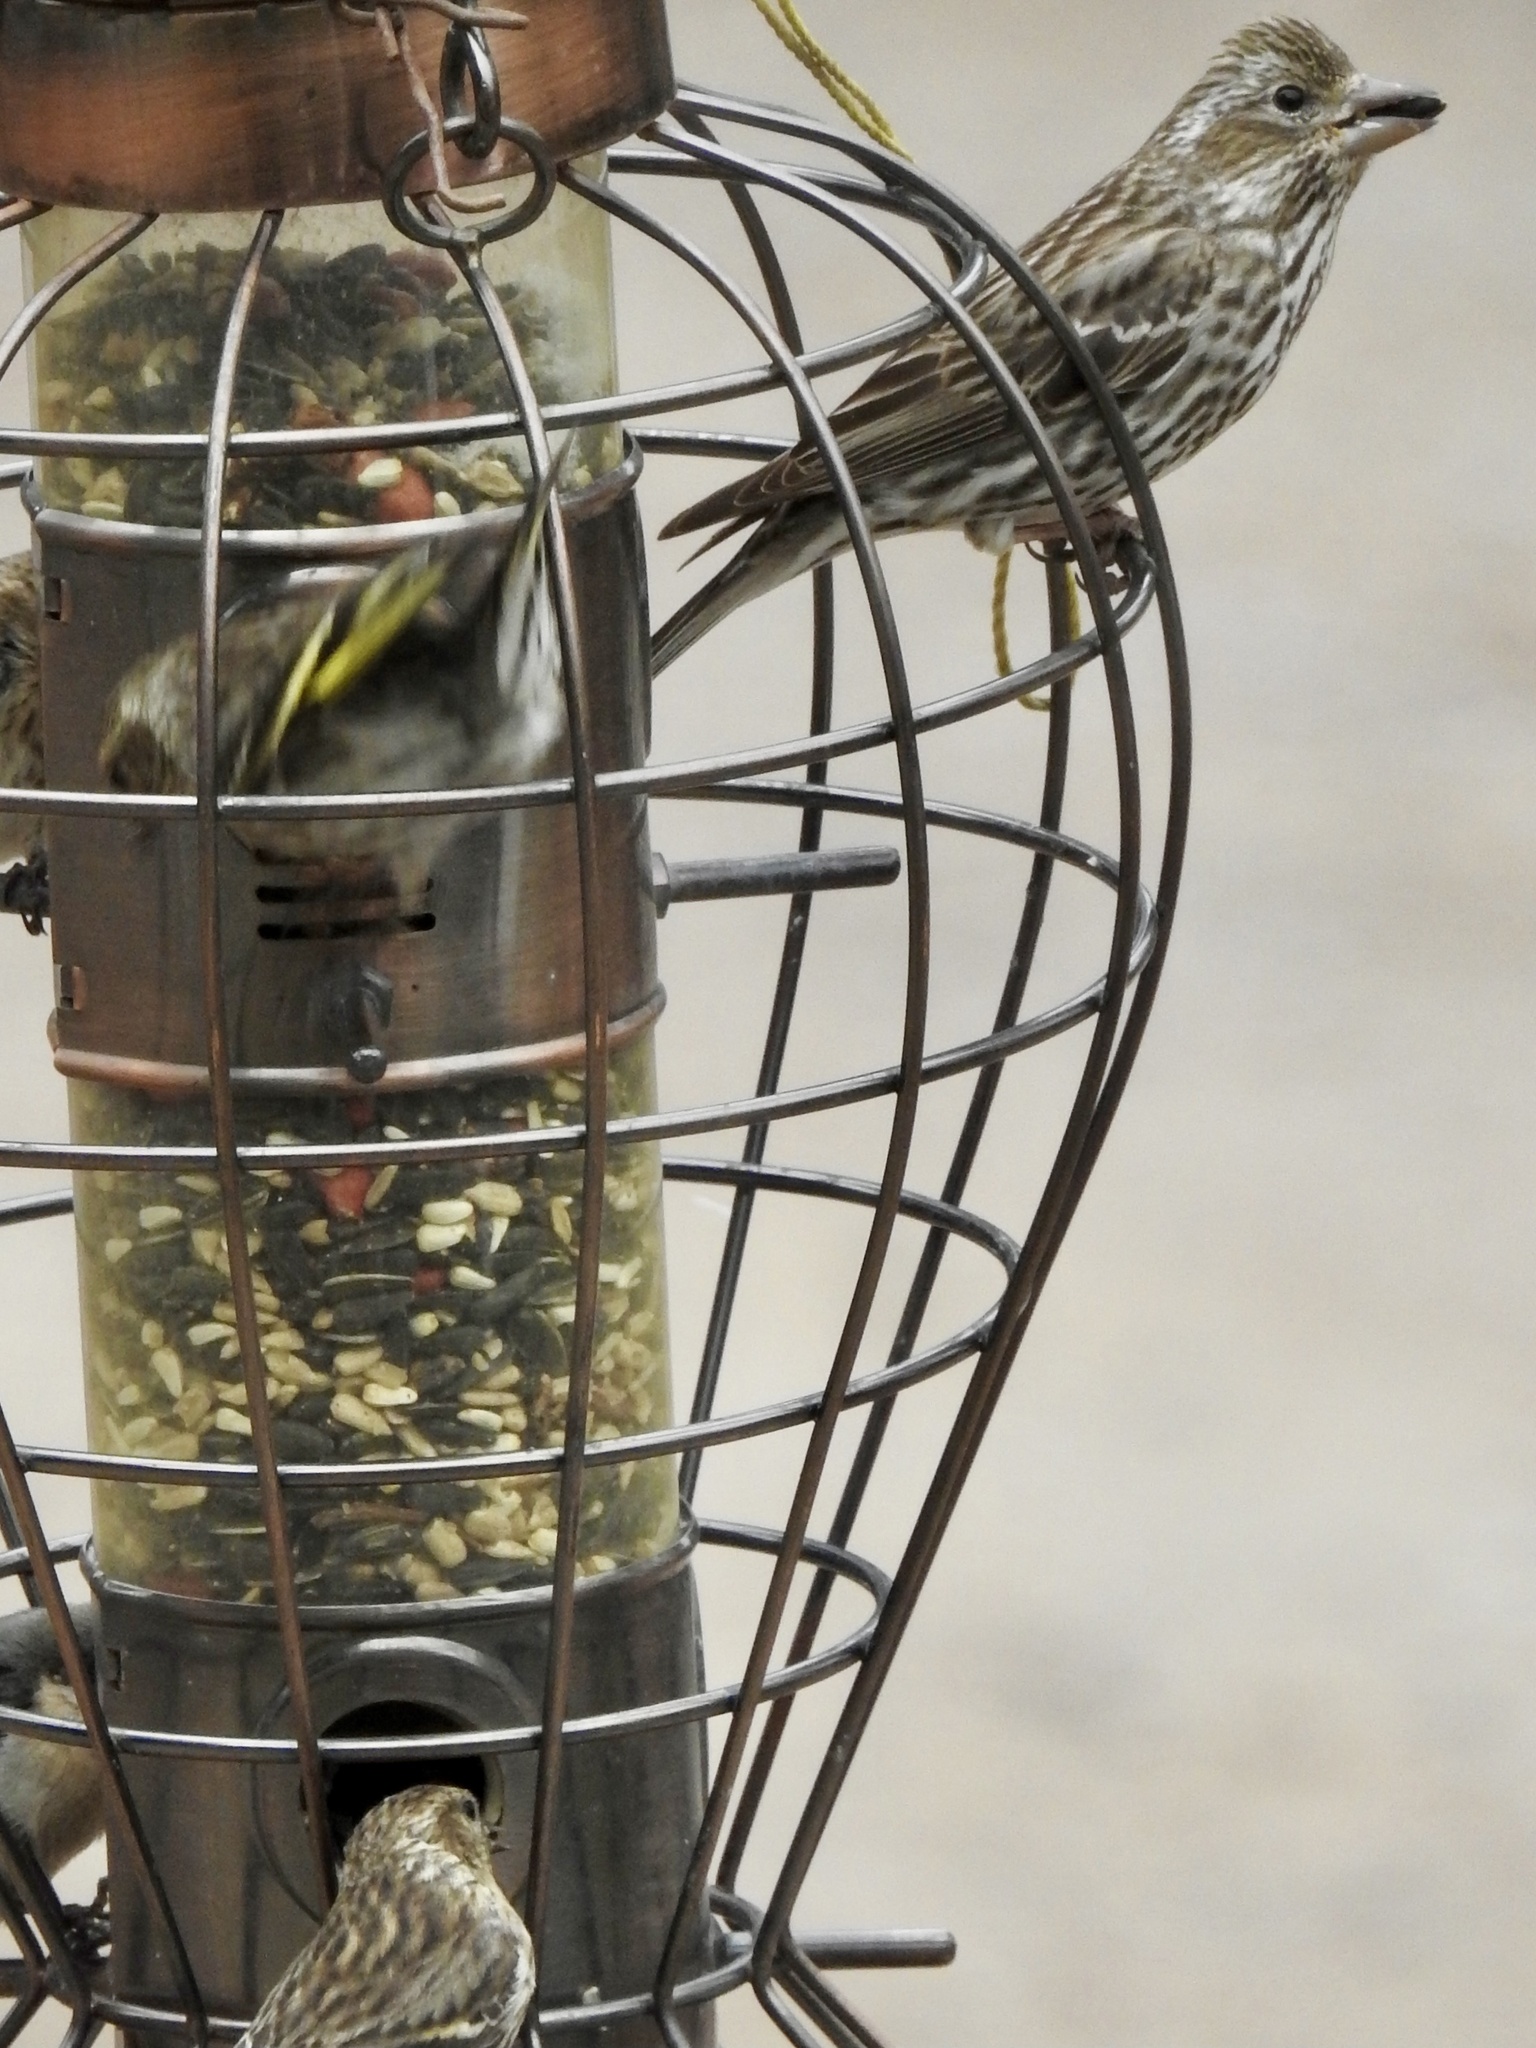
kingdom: Animalia
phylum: Chordata
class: Aves
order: Passeriformes
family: Fringillidae
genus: Haemorhous
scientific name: Haemorhous cassinii
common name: Cassin's finch
